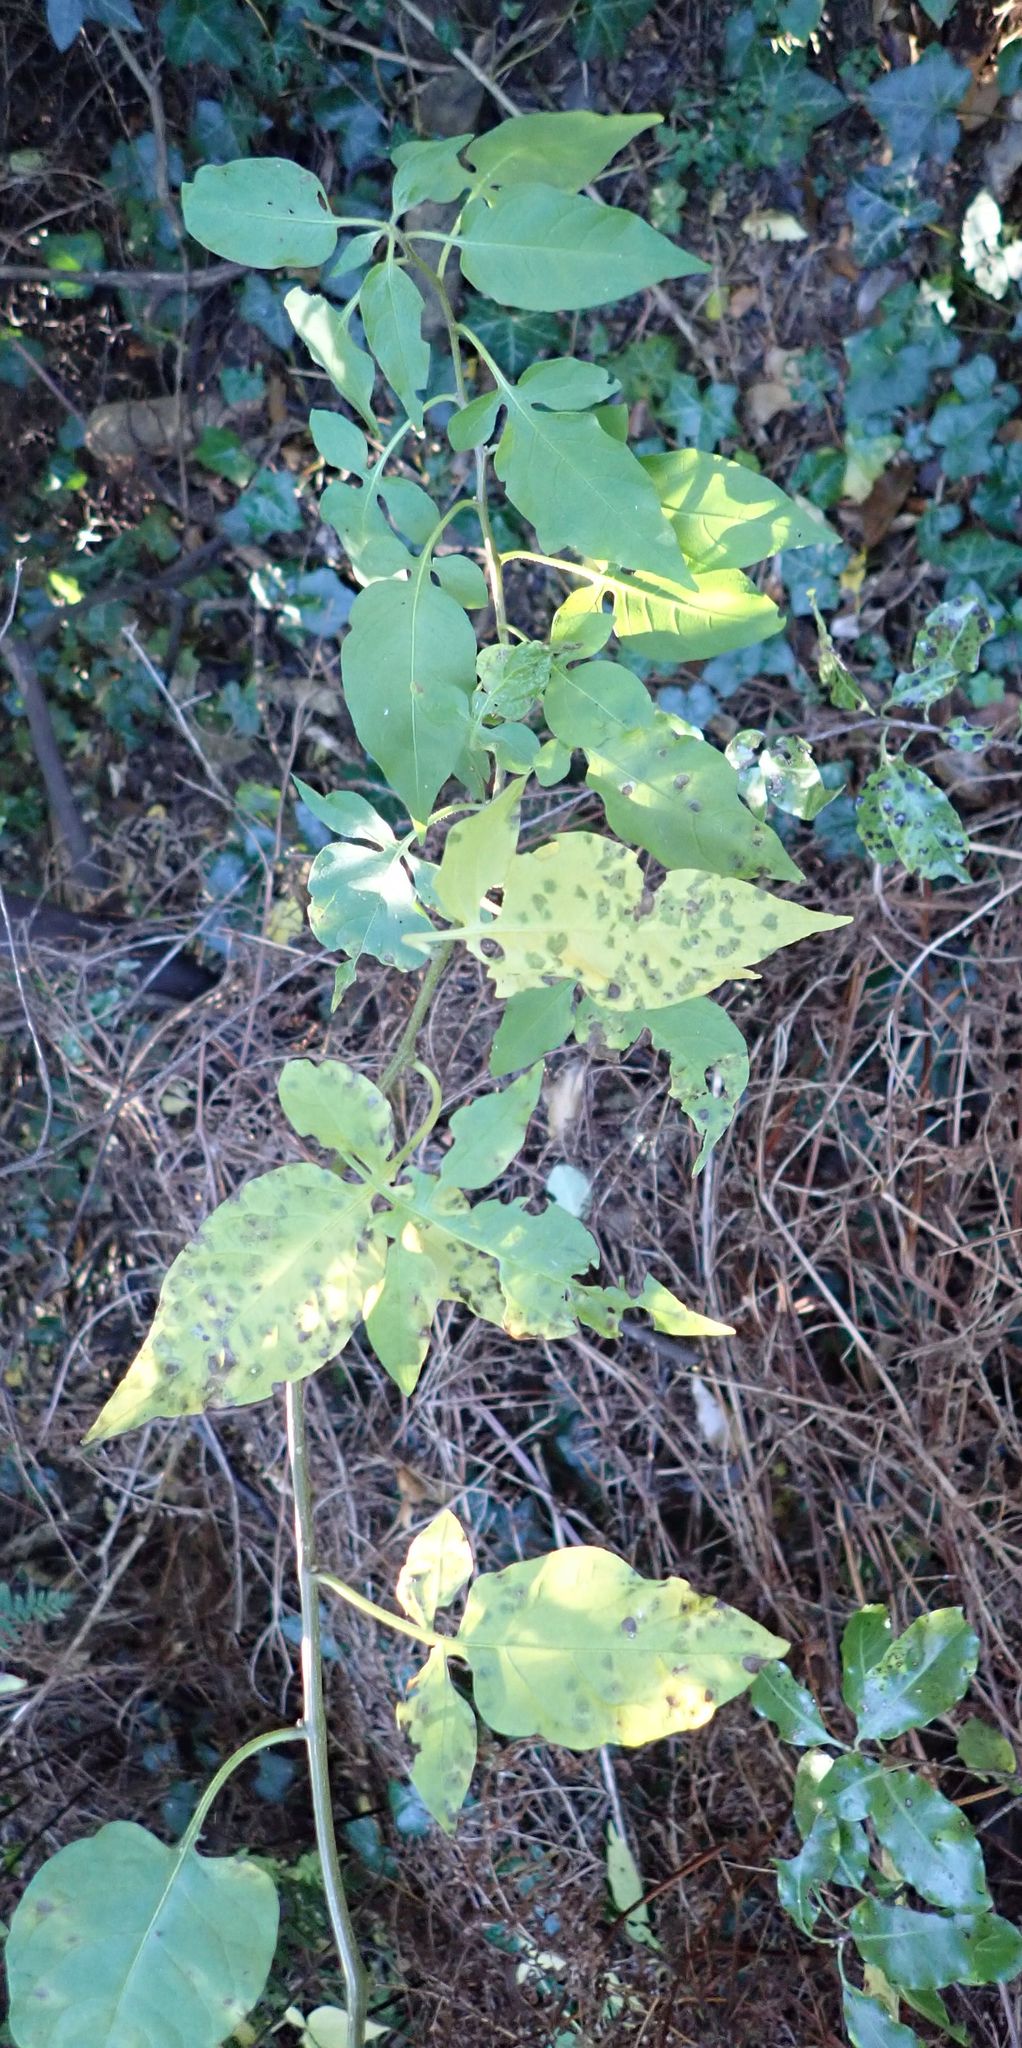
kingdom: Plantae
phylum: Tracheophyta
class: Magnoliopsida
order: Solanales
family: Solanaceae
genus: Solanum
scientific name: Solanum dulcamara
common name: Climbing nightshade
